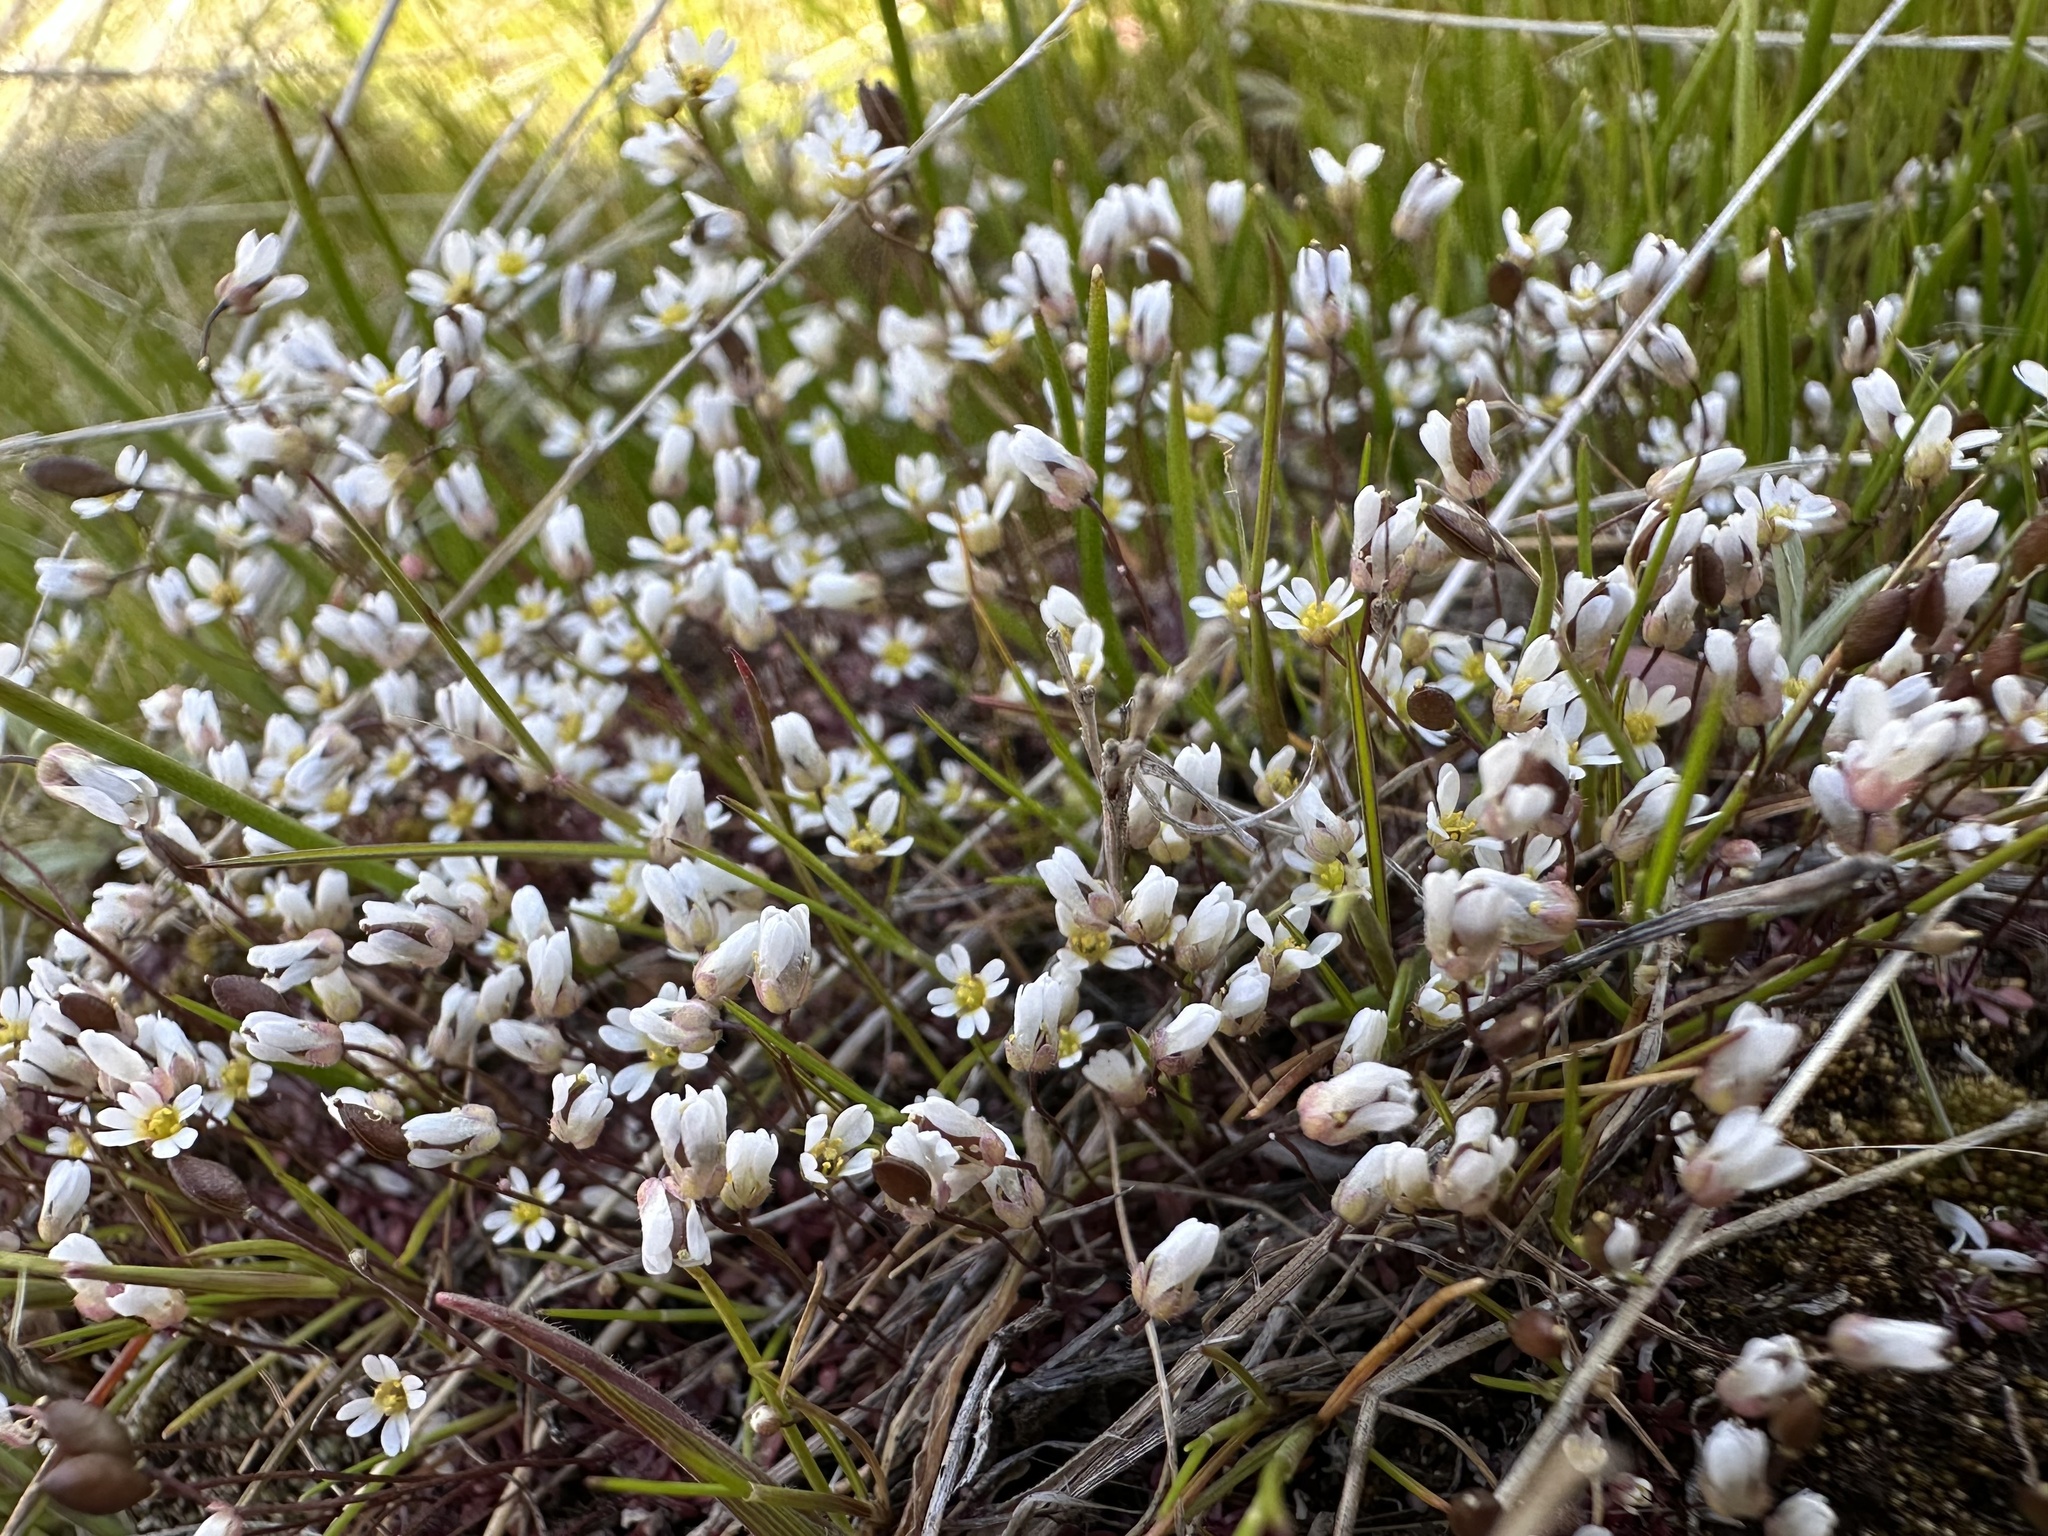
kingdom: Plantae
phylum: Tracheophyta
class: Magnoliopsida
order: Brassicales
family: Brassicaceae
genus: Draba
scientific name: Draba verna
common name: Spring draba
